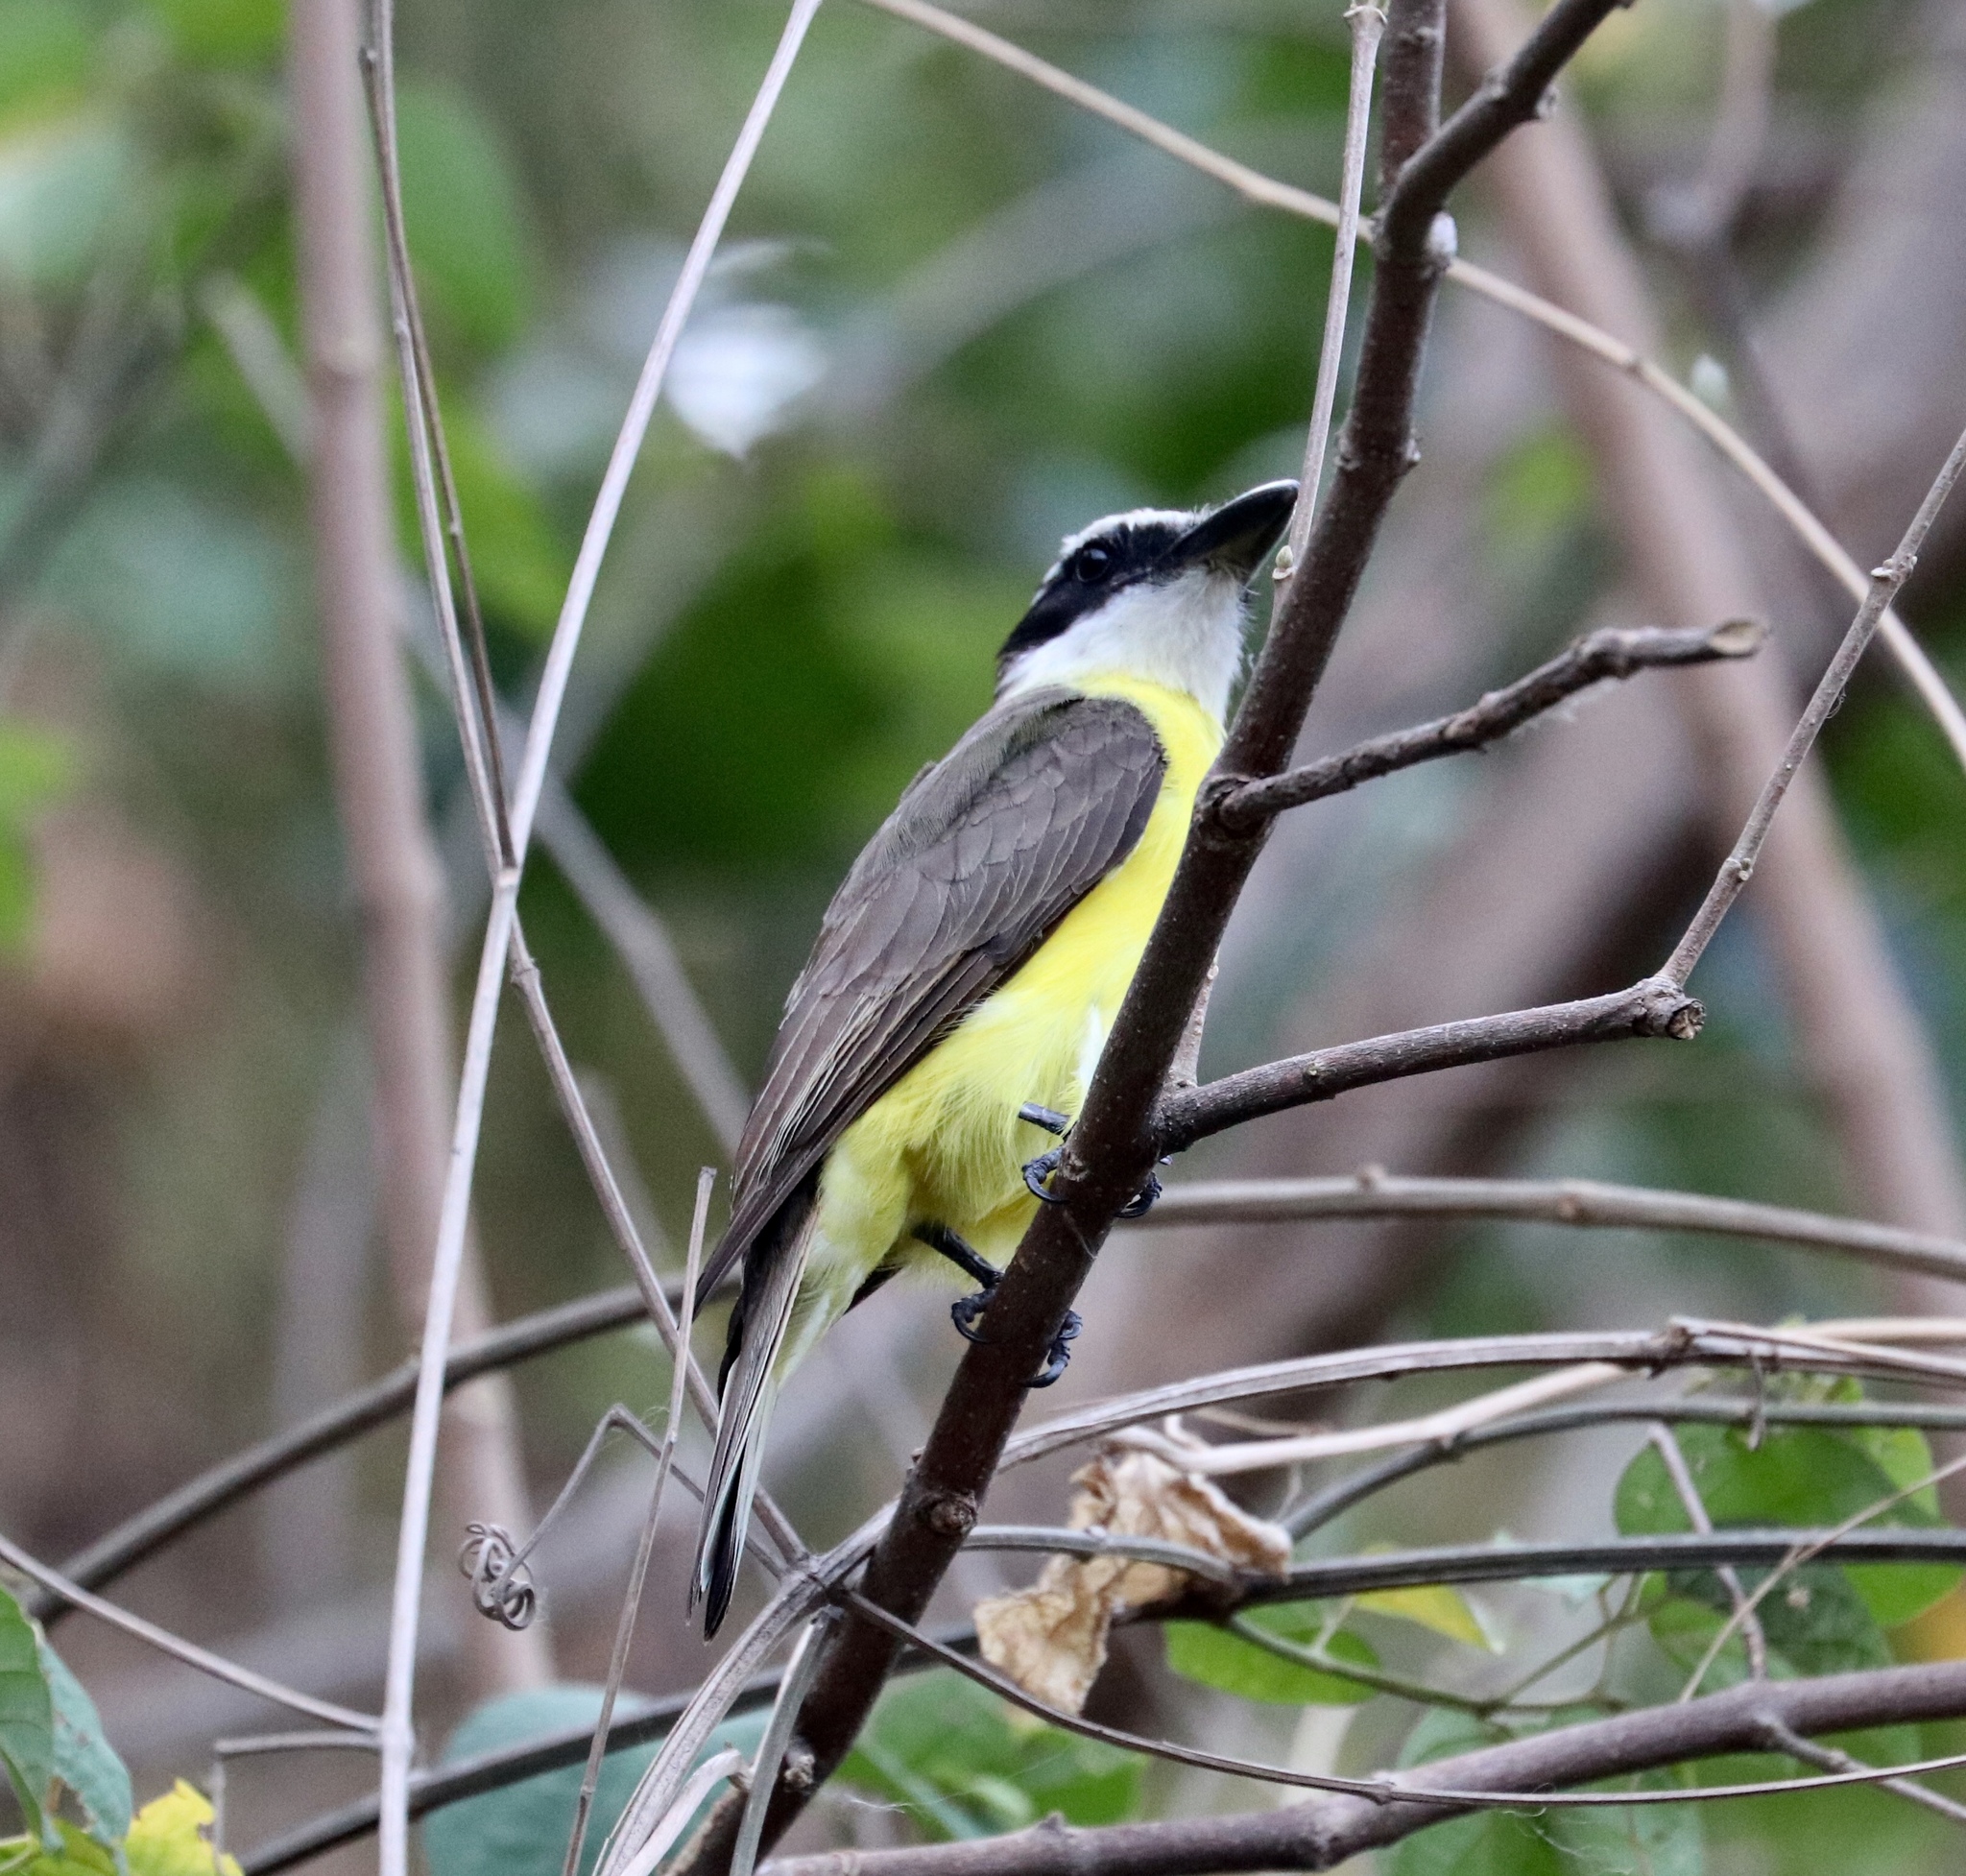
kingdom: Animalia
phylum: Chordata
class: Aves
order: Passeriformes
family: Tyrannidae
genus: Megarynchus
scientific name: Megarynchus pitangua
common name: Boat-billed flycatcher
